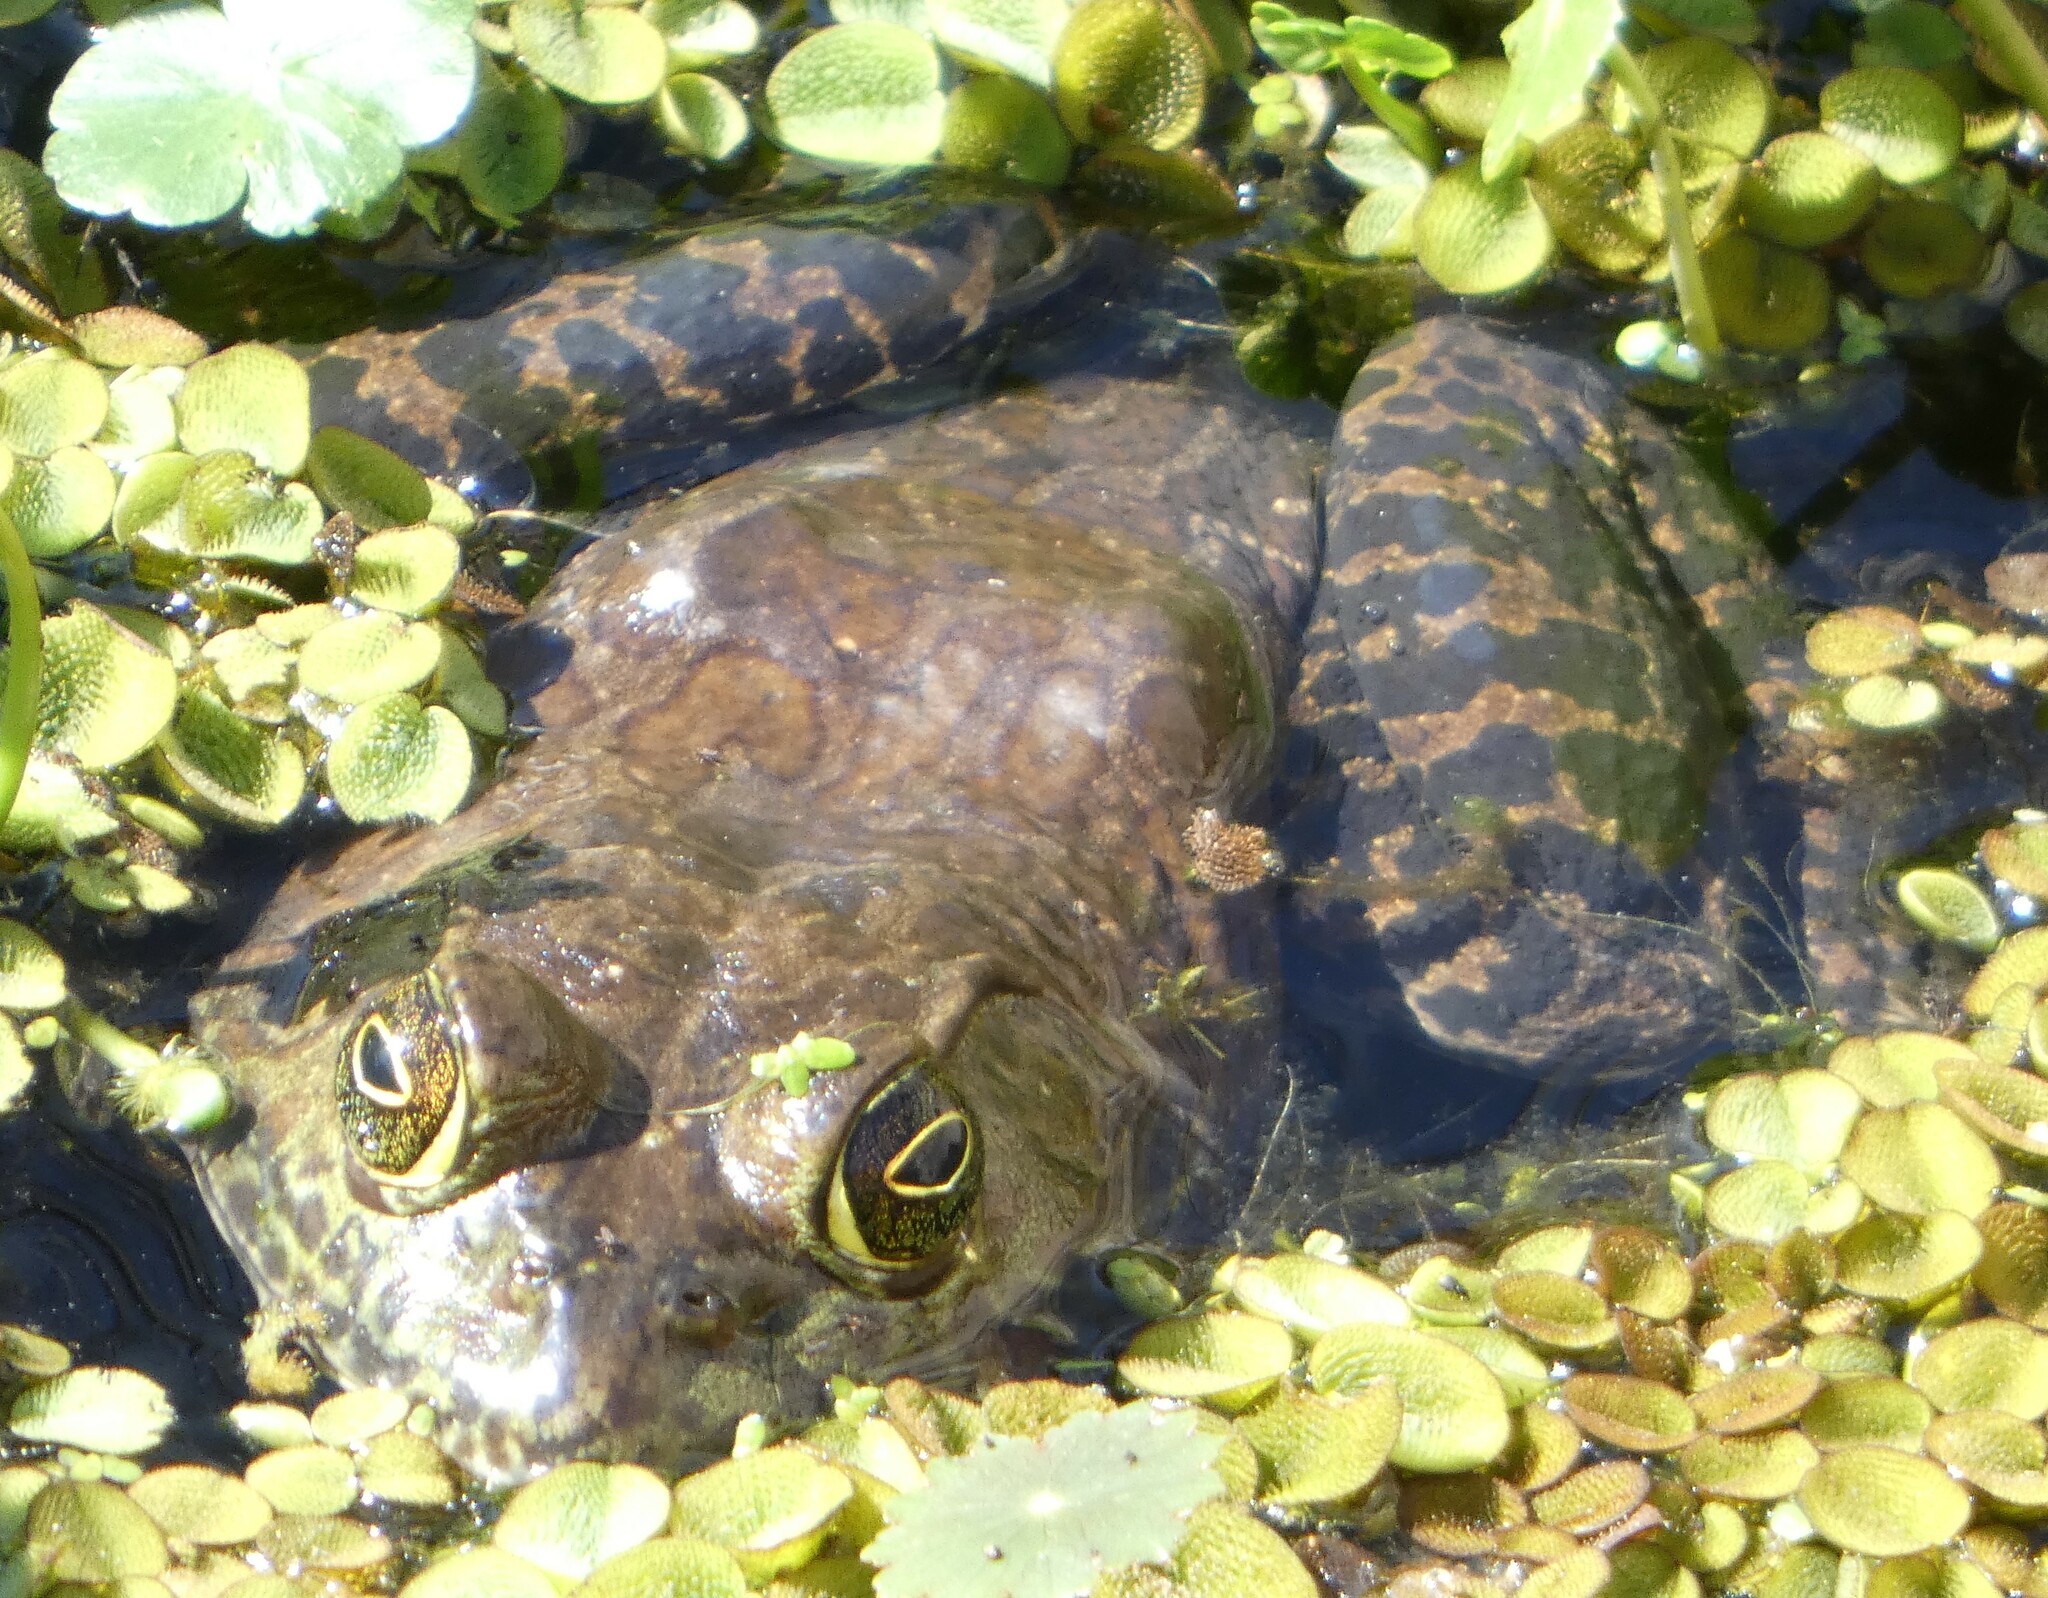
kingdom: Animalia
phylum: Chordata
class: Amphibia
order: Anura
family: Ranidae
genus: Lithobates
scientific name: Lithobates catesbeianus
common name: American bullfrog
